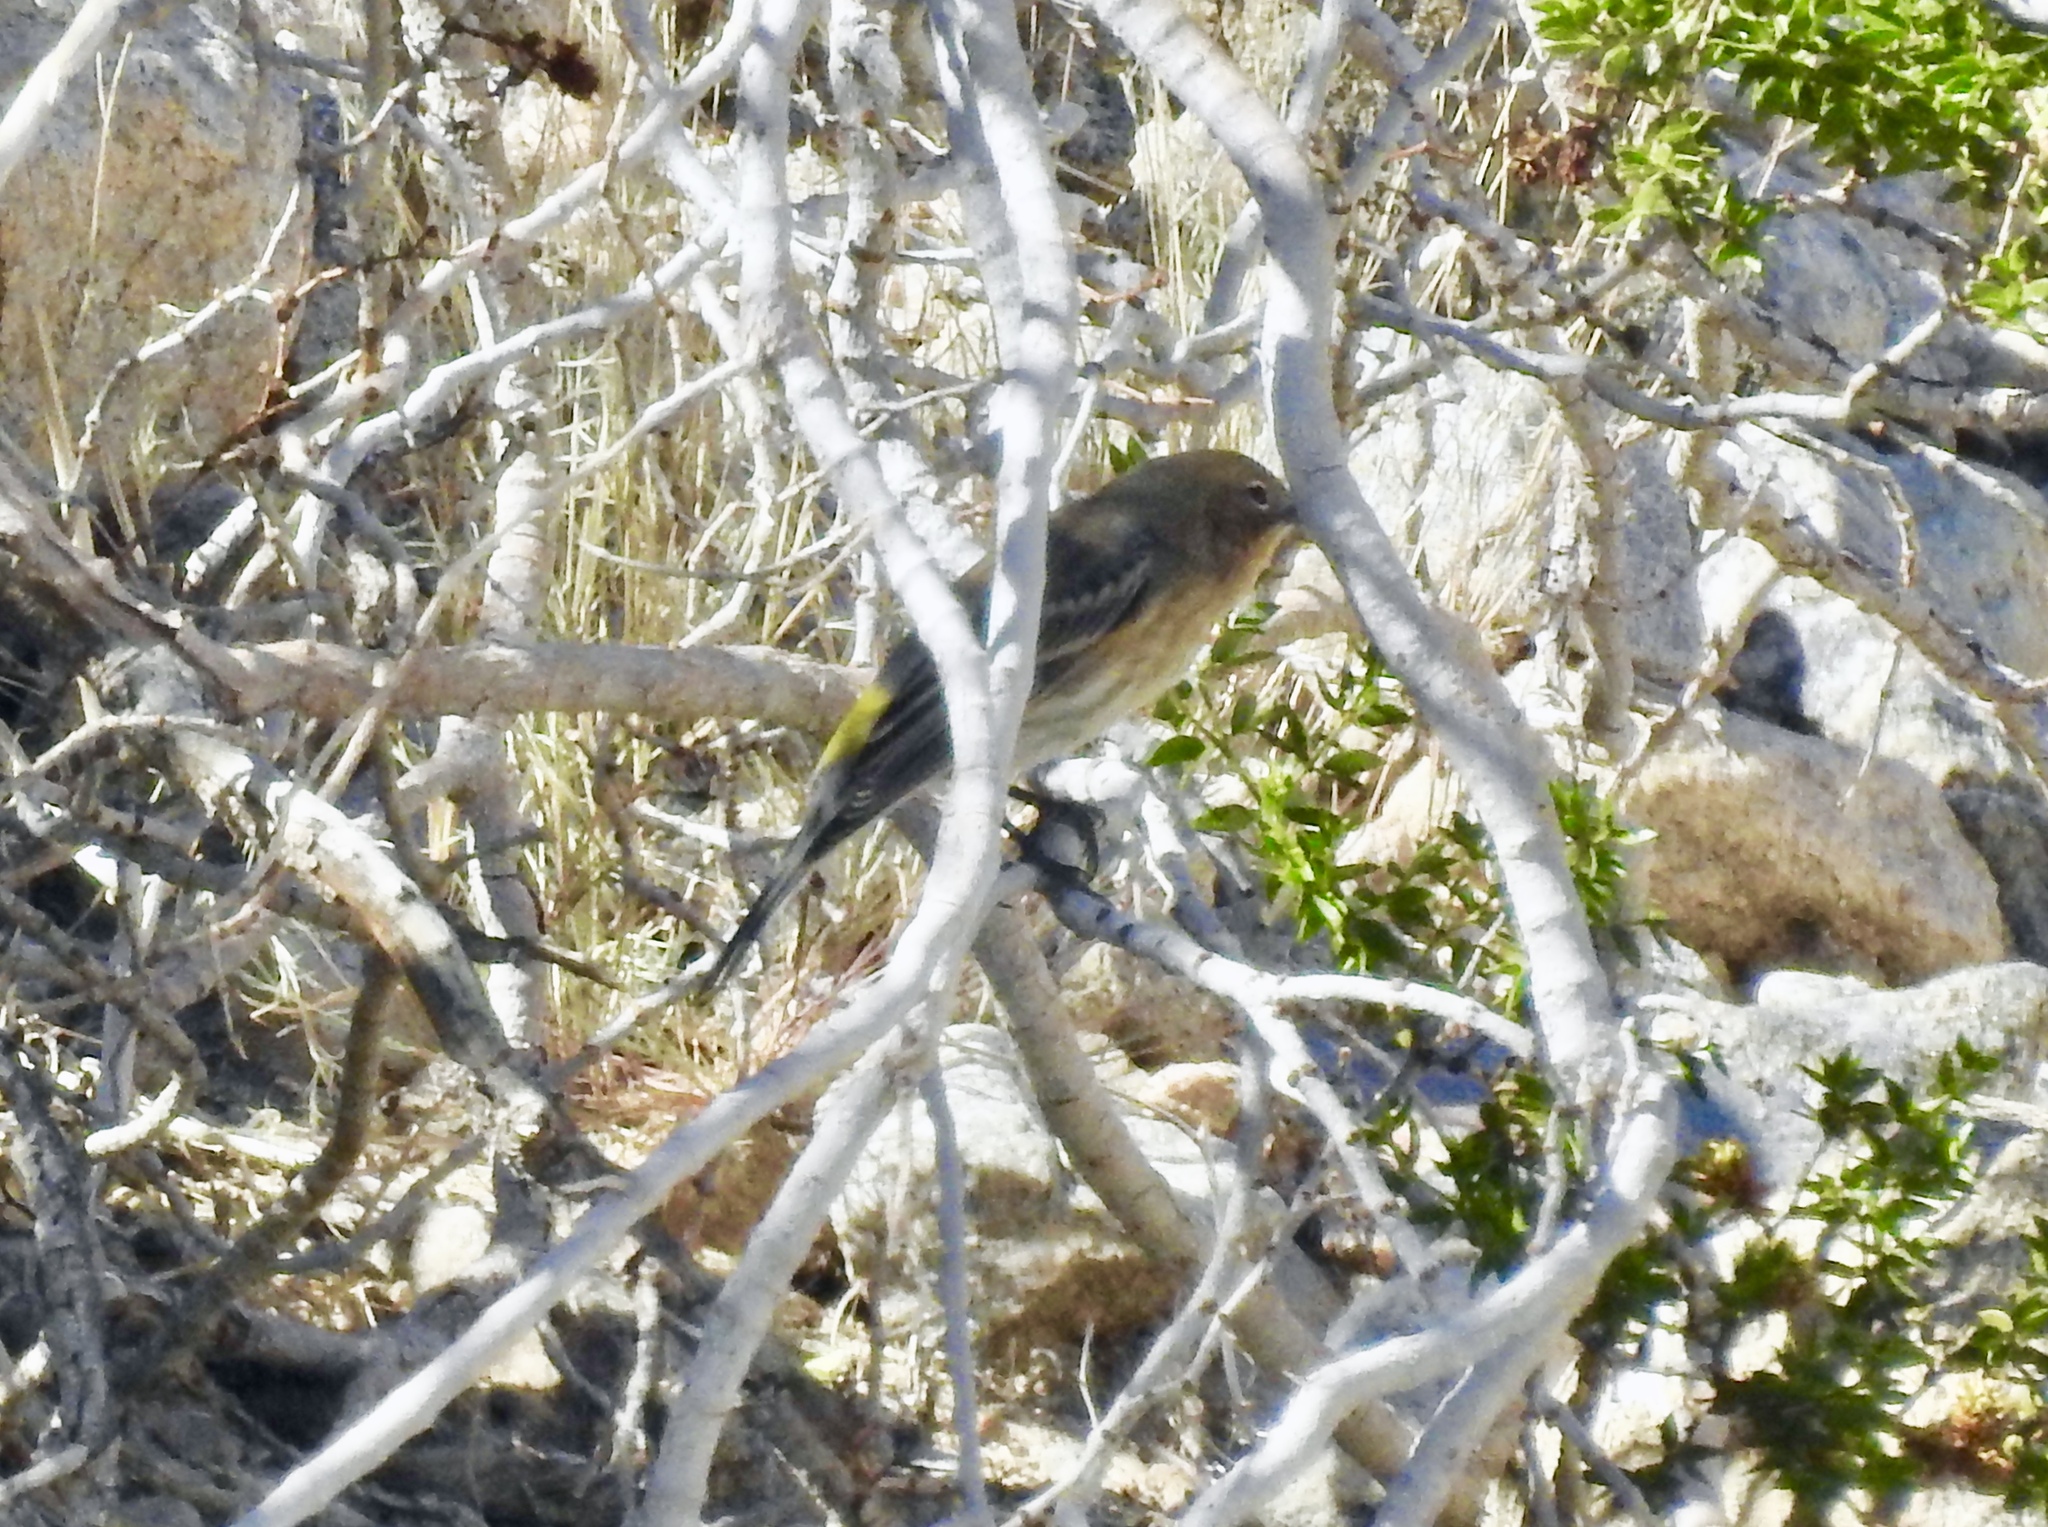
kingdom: Animalia
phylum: Chordata
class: Aves
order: Passeriformes
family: Parulidae
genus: Setophaga
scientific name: Setophaga coronata
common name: Myrtle warbler
